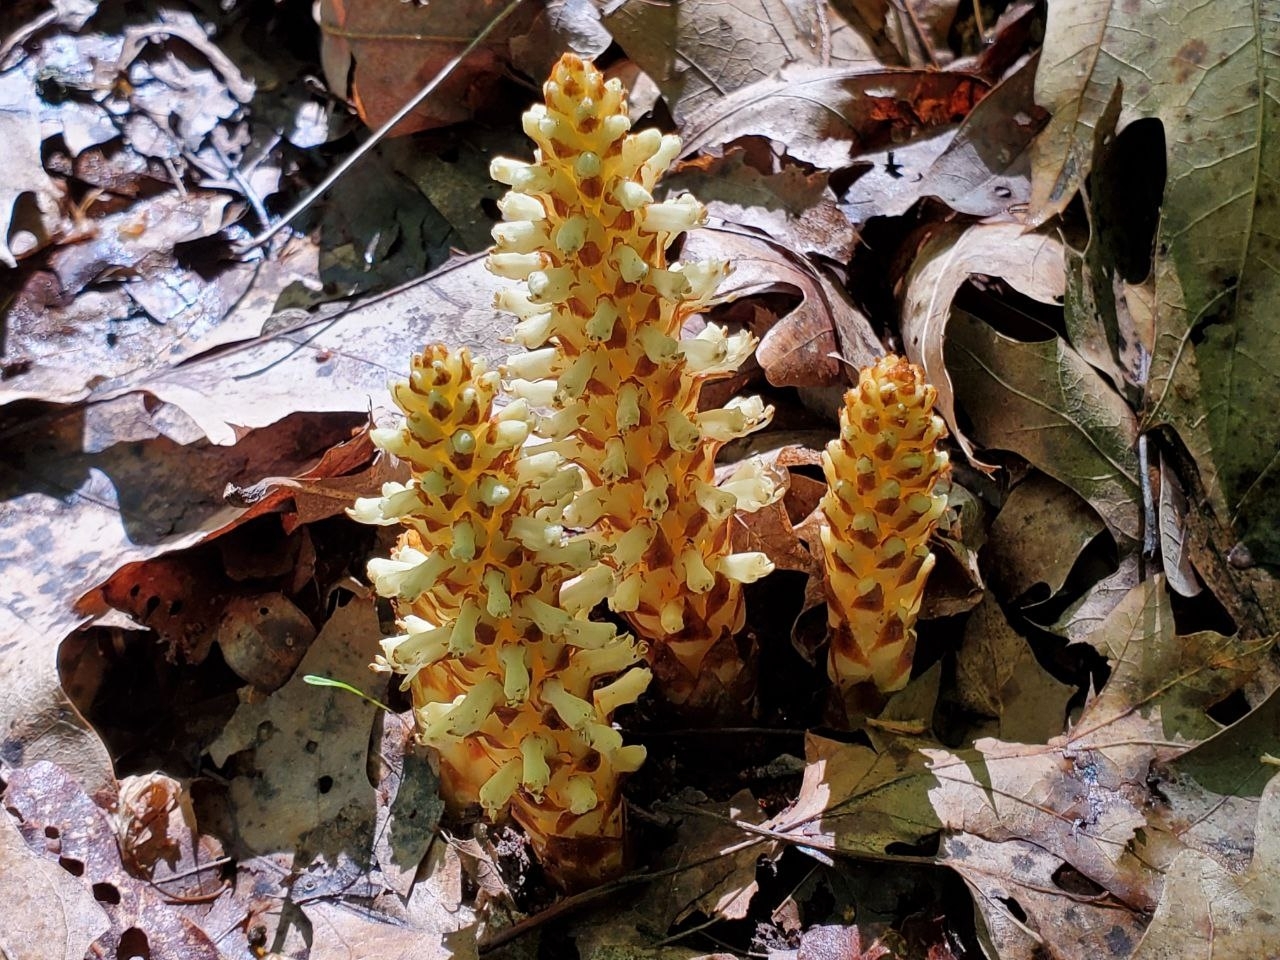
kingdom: Plantae
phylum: Tracheophyta
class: Magnoliopsida
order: Lamiales
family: Orobanchaceae
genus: Conopholis
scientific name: Conopholis americana
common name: American cancer-root
